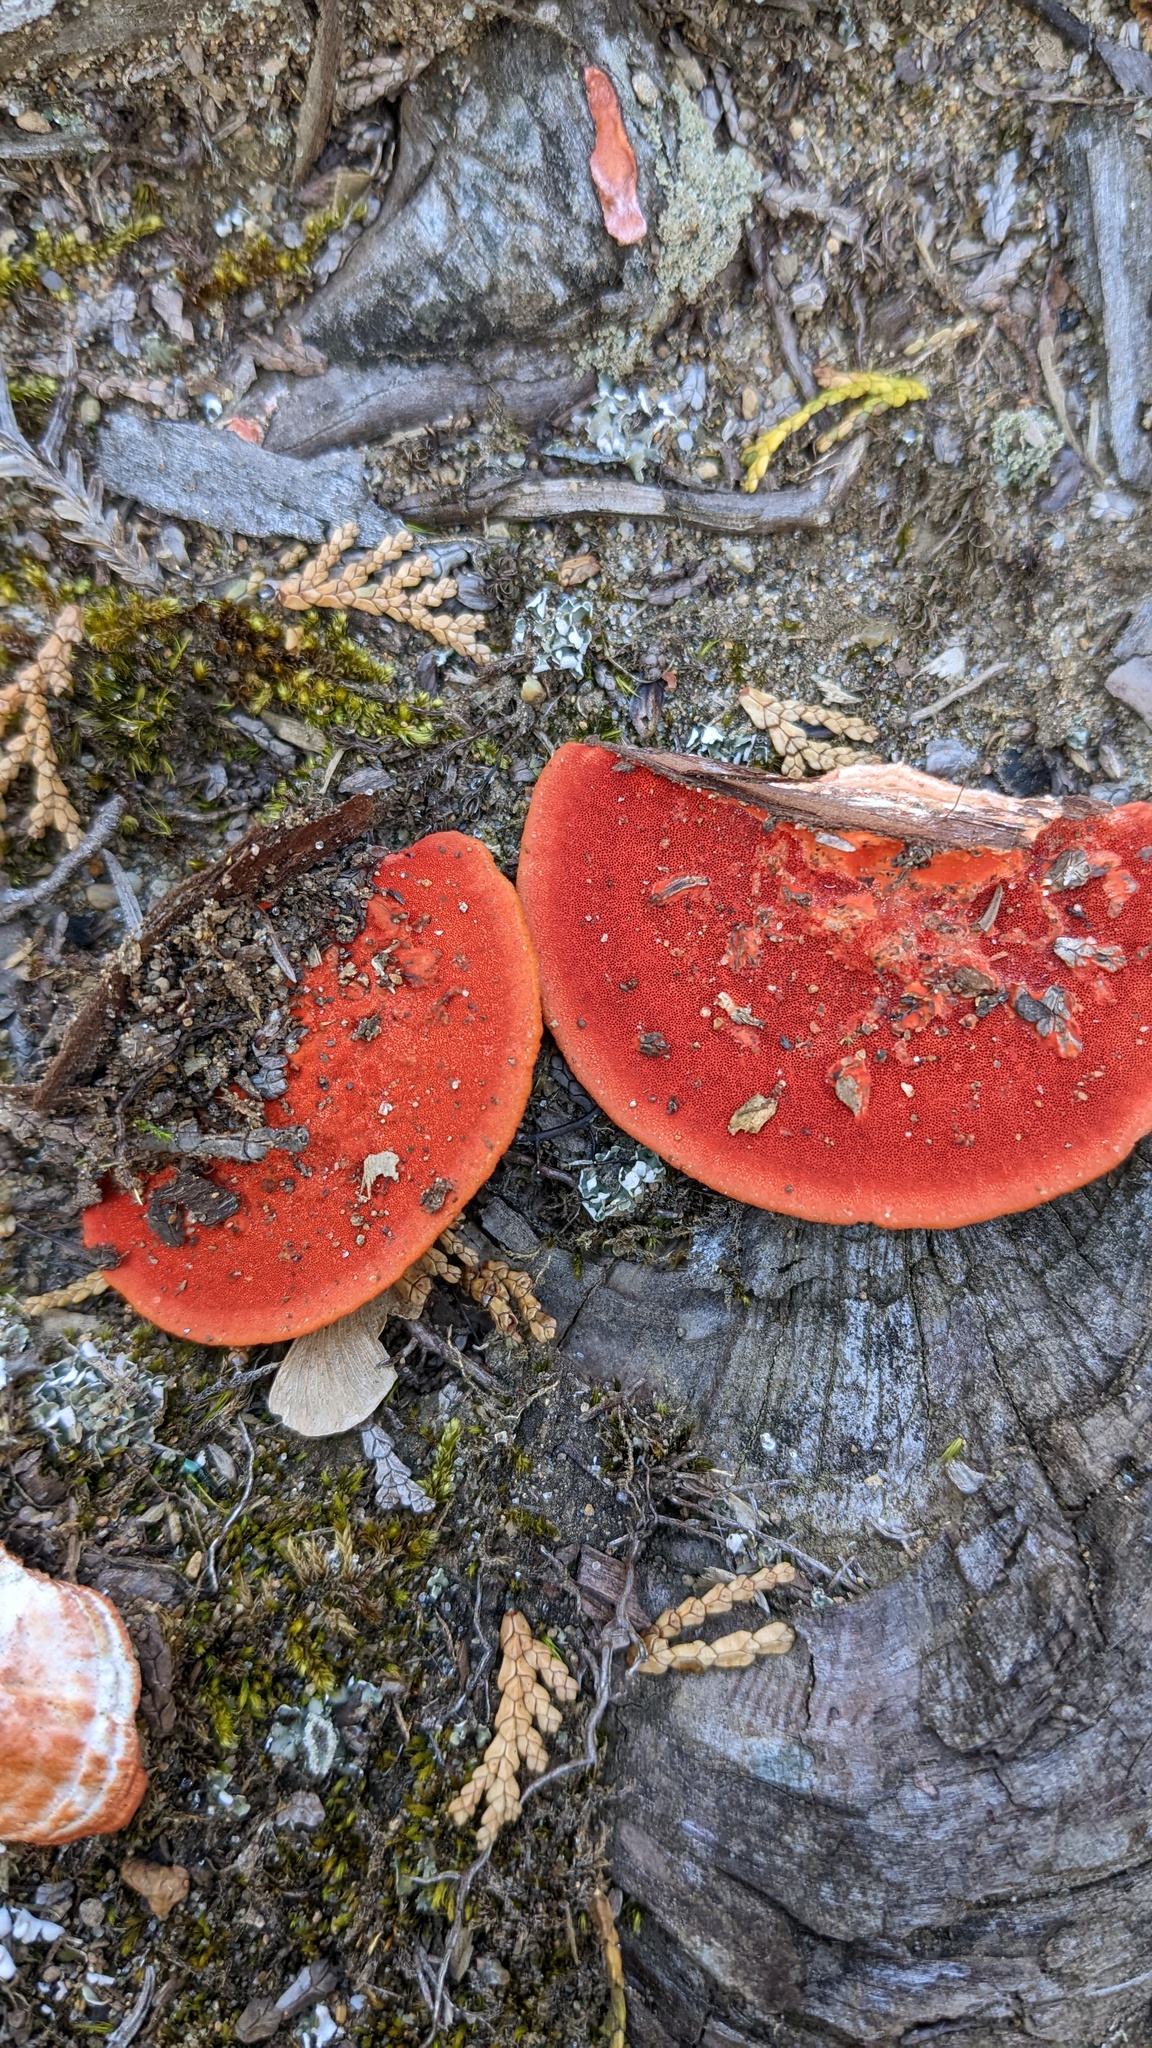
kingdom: Fungi
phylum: Basidiomycota
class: Agaricomycetes
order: Polyporales
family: Polyporaceae
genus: Trametes
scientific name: Trametes coccinea
